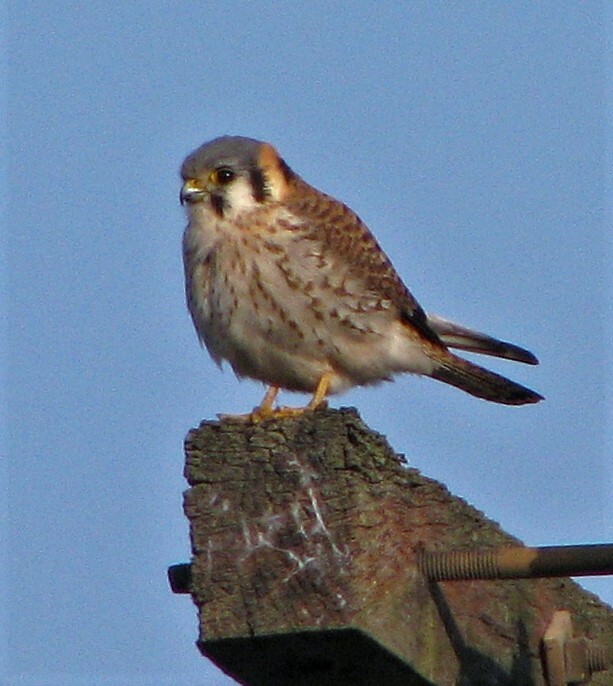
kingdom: Animalia
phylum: Chordata
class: Aves
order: Falconiformes
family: Falconidae
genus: Falco
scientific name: Falco sparverius
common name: American kestrel
